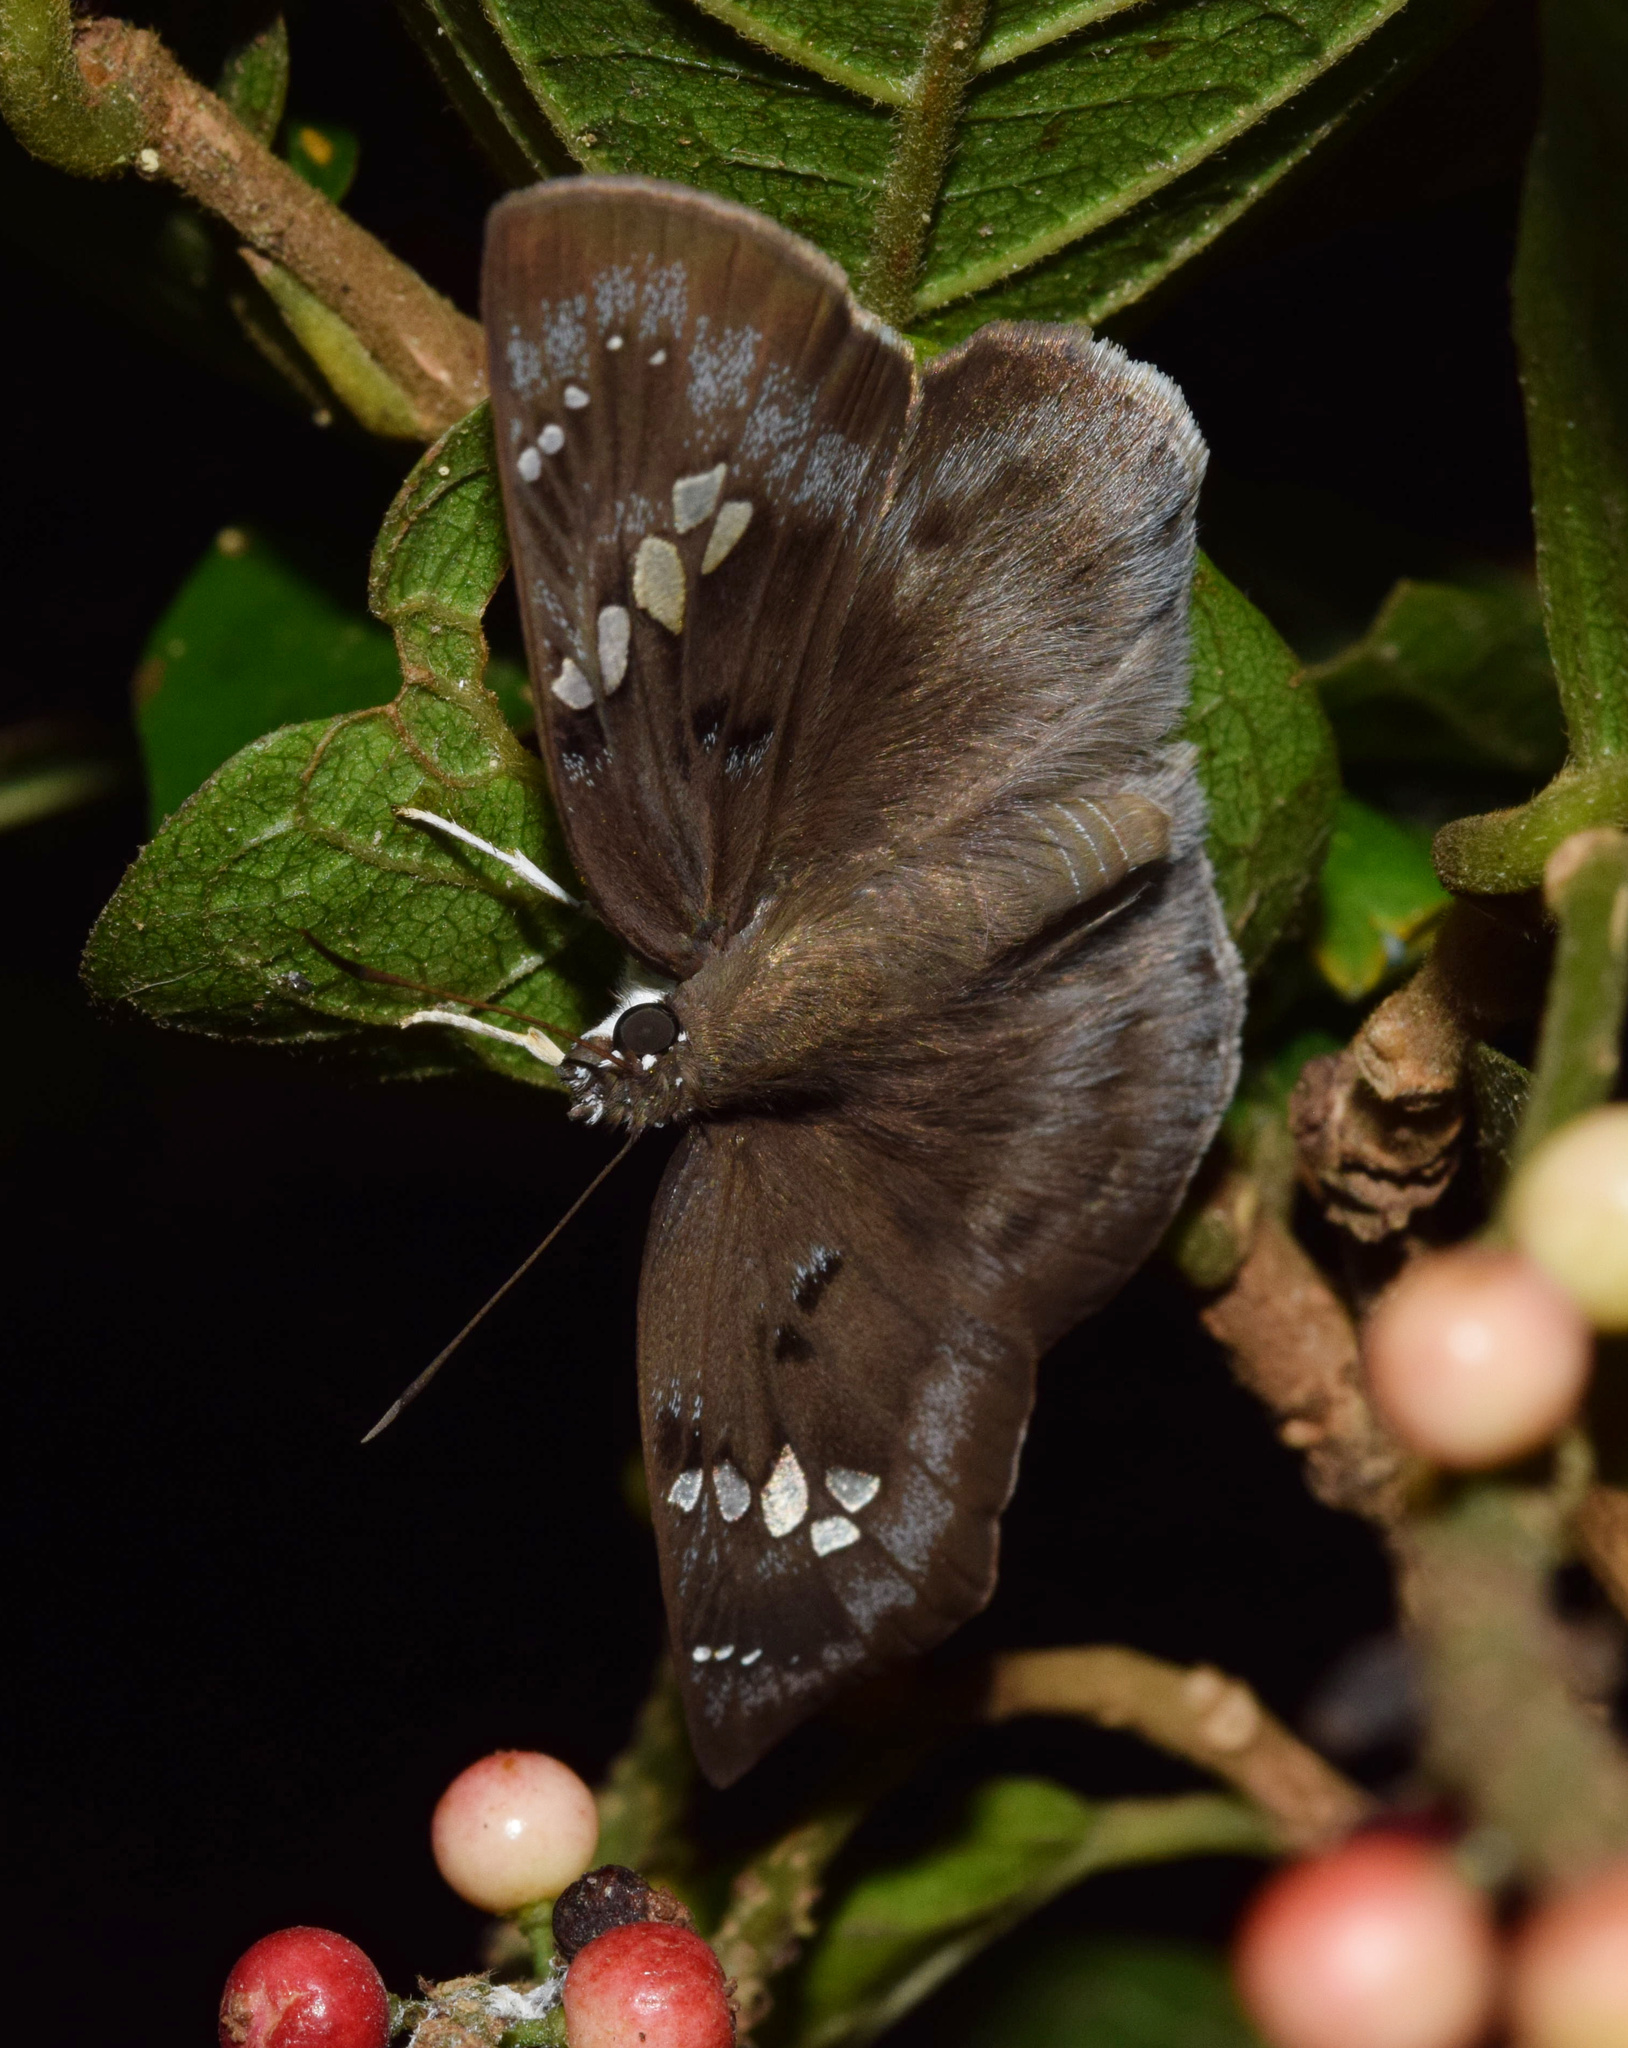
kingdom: Animalia
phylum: Arthropoda
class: Insecta
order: Lepidoptera
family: Hesperiidae
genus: Tagiades
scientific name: Tagiades flesus
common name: Clouded flat
